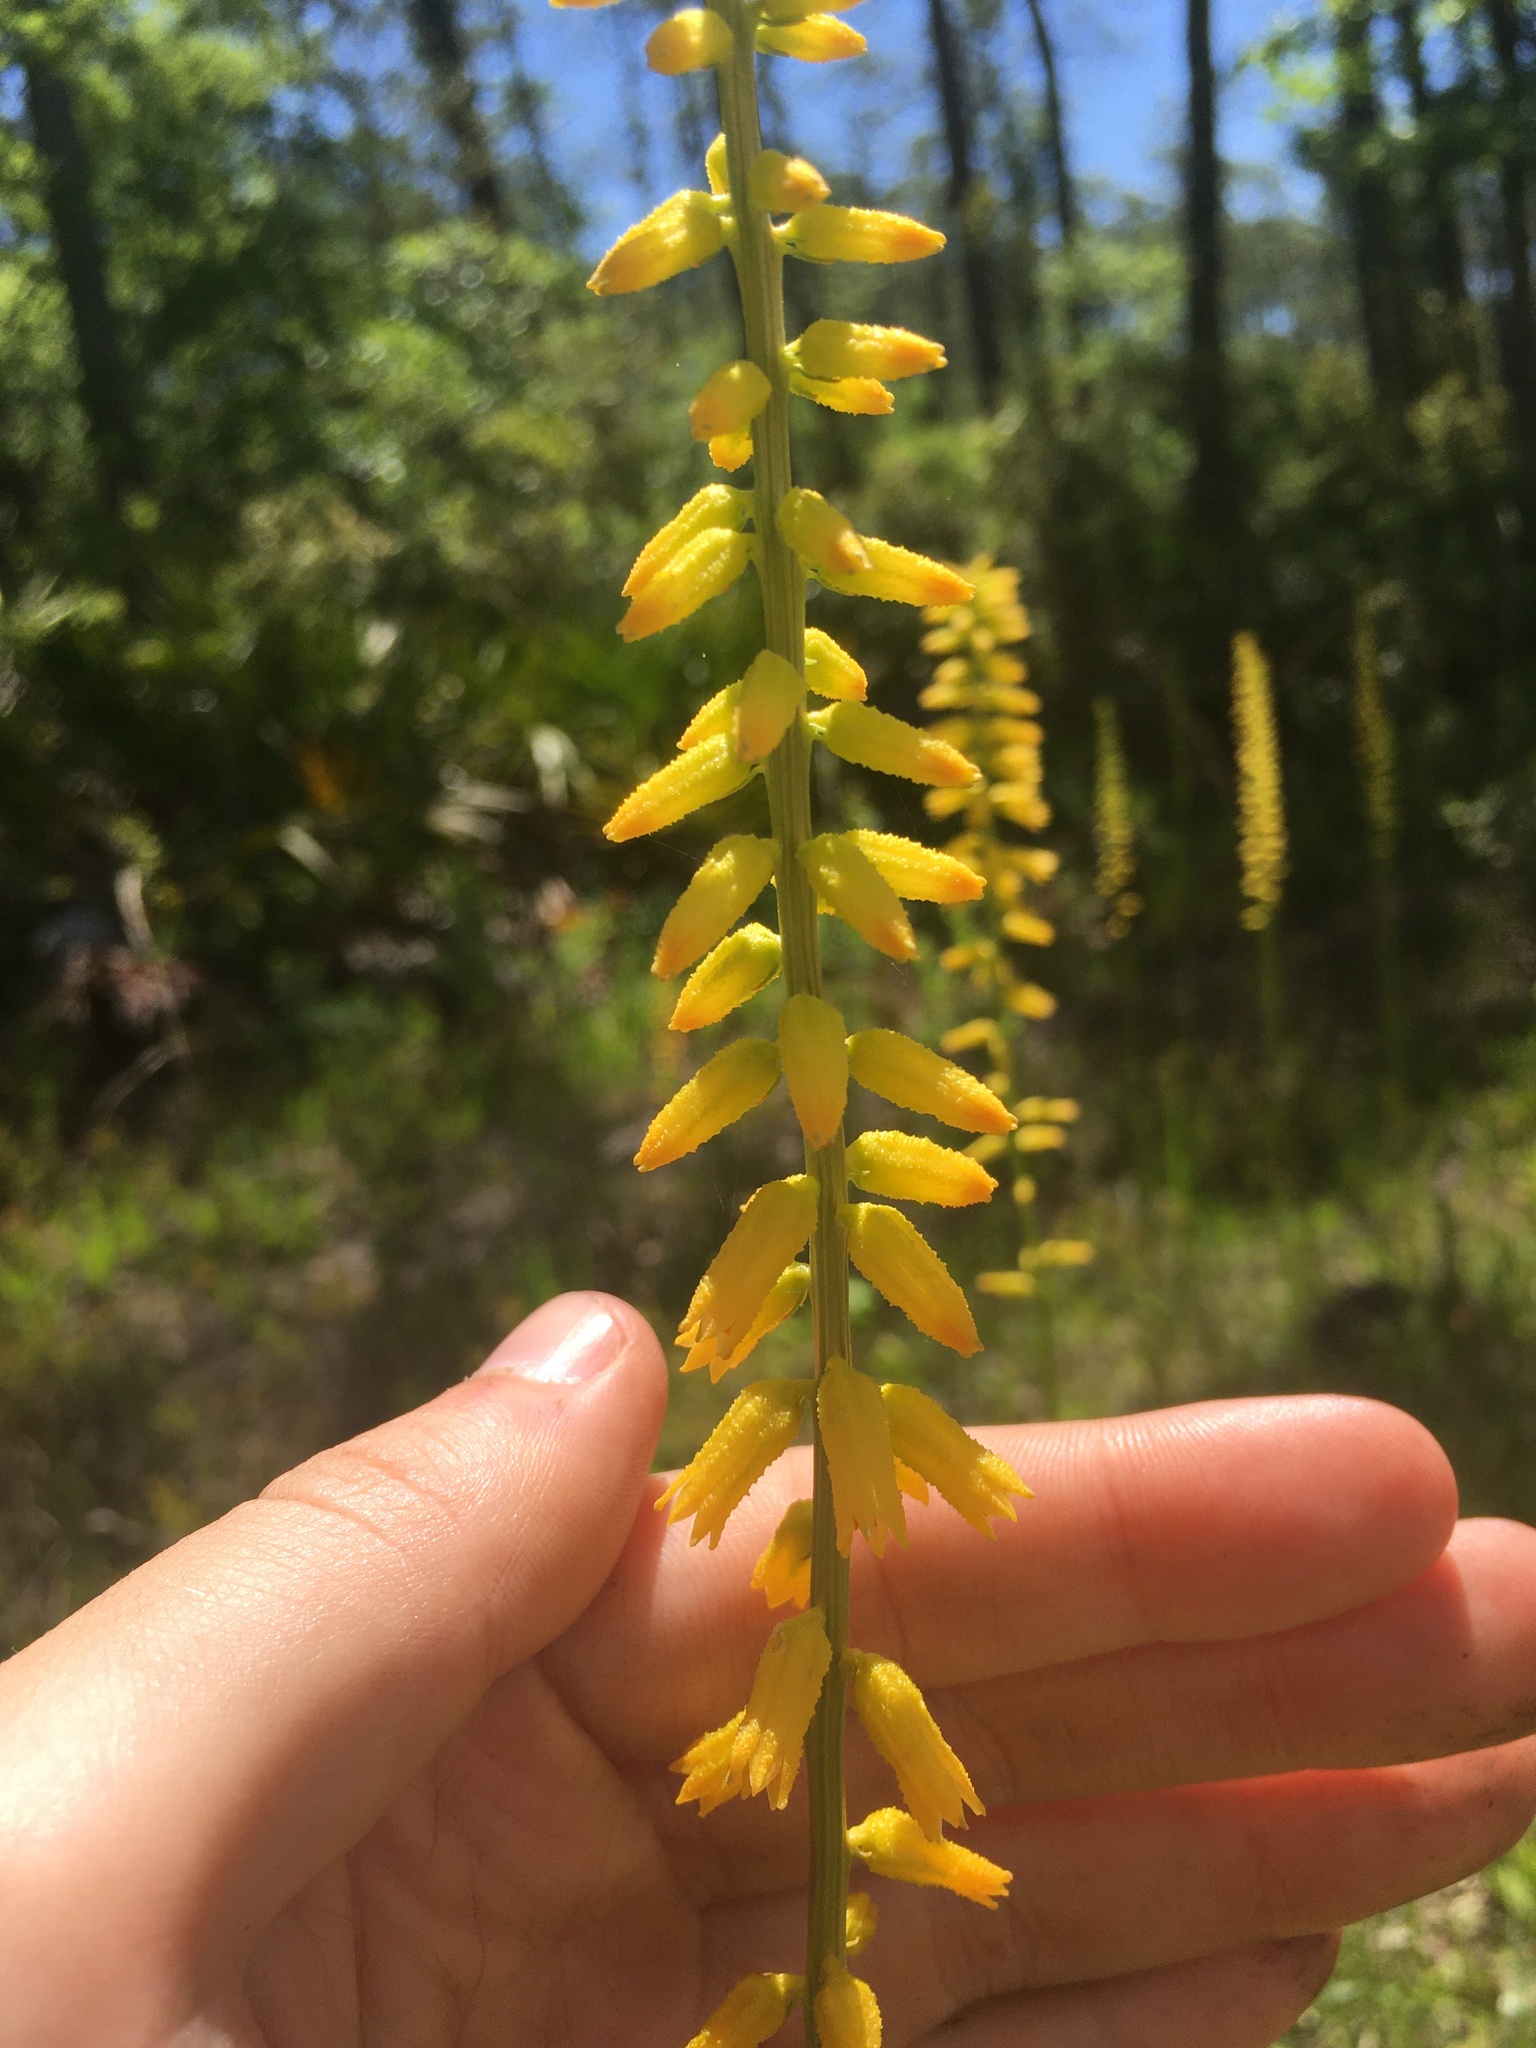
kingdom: Plantae
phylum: Tracheophyta
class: Liliopsida
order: Dioscoreales
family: Nartheciaceae
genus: Aletris
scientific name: Aletris lutea
